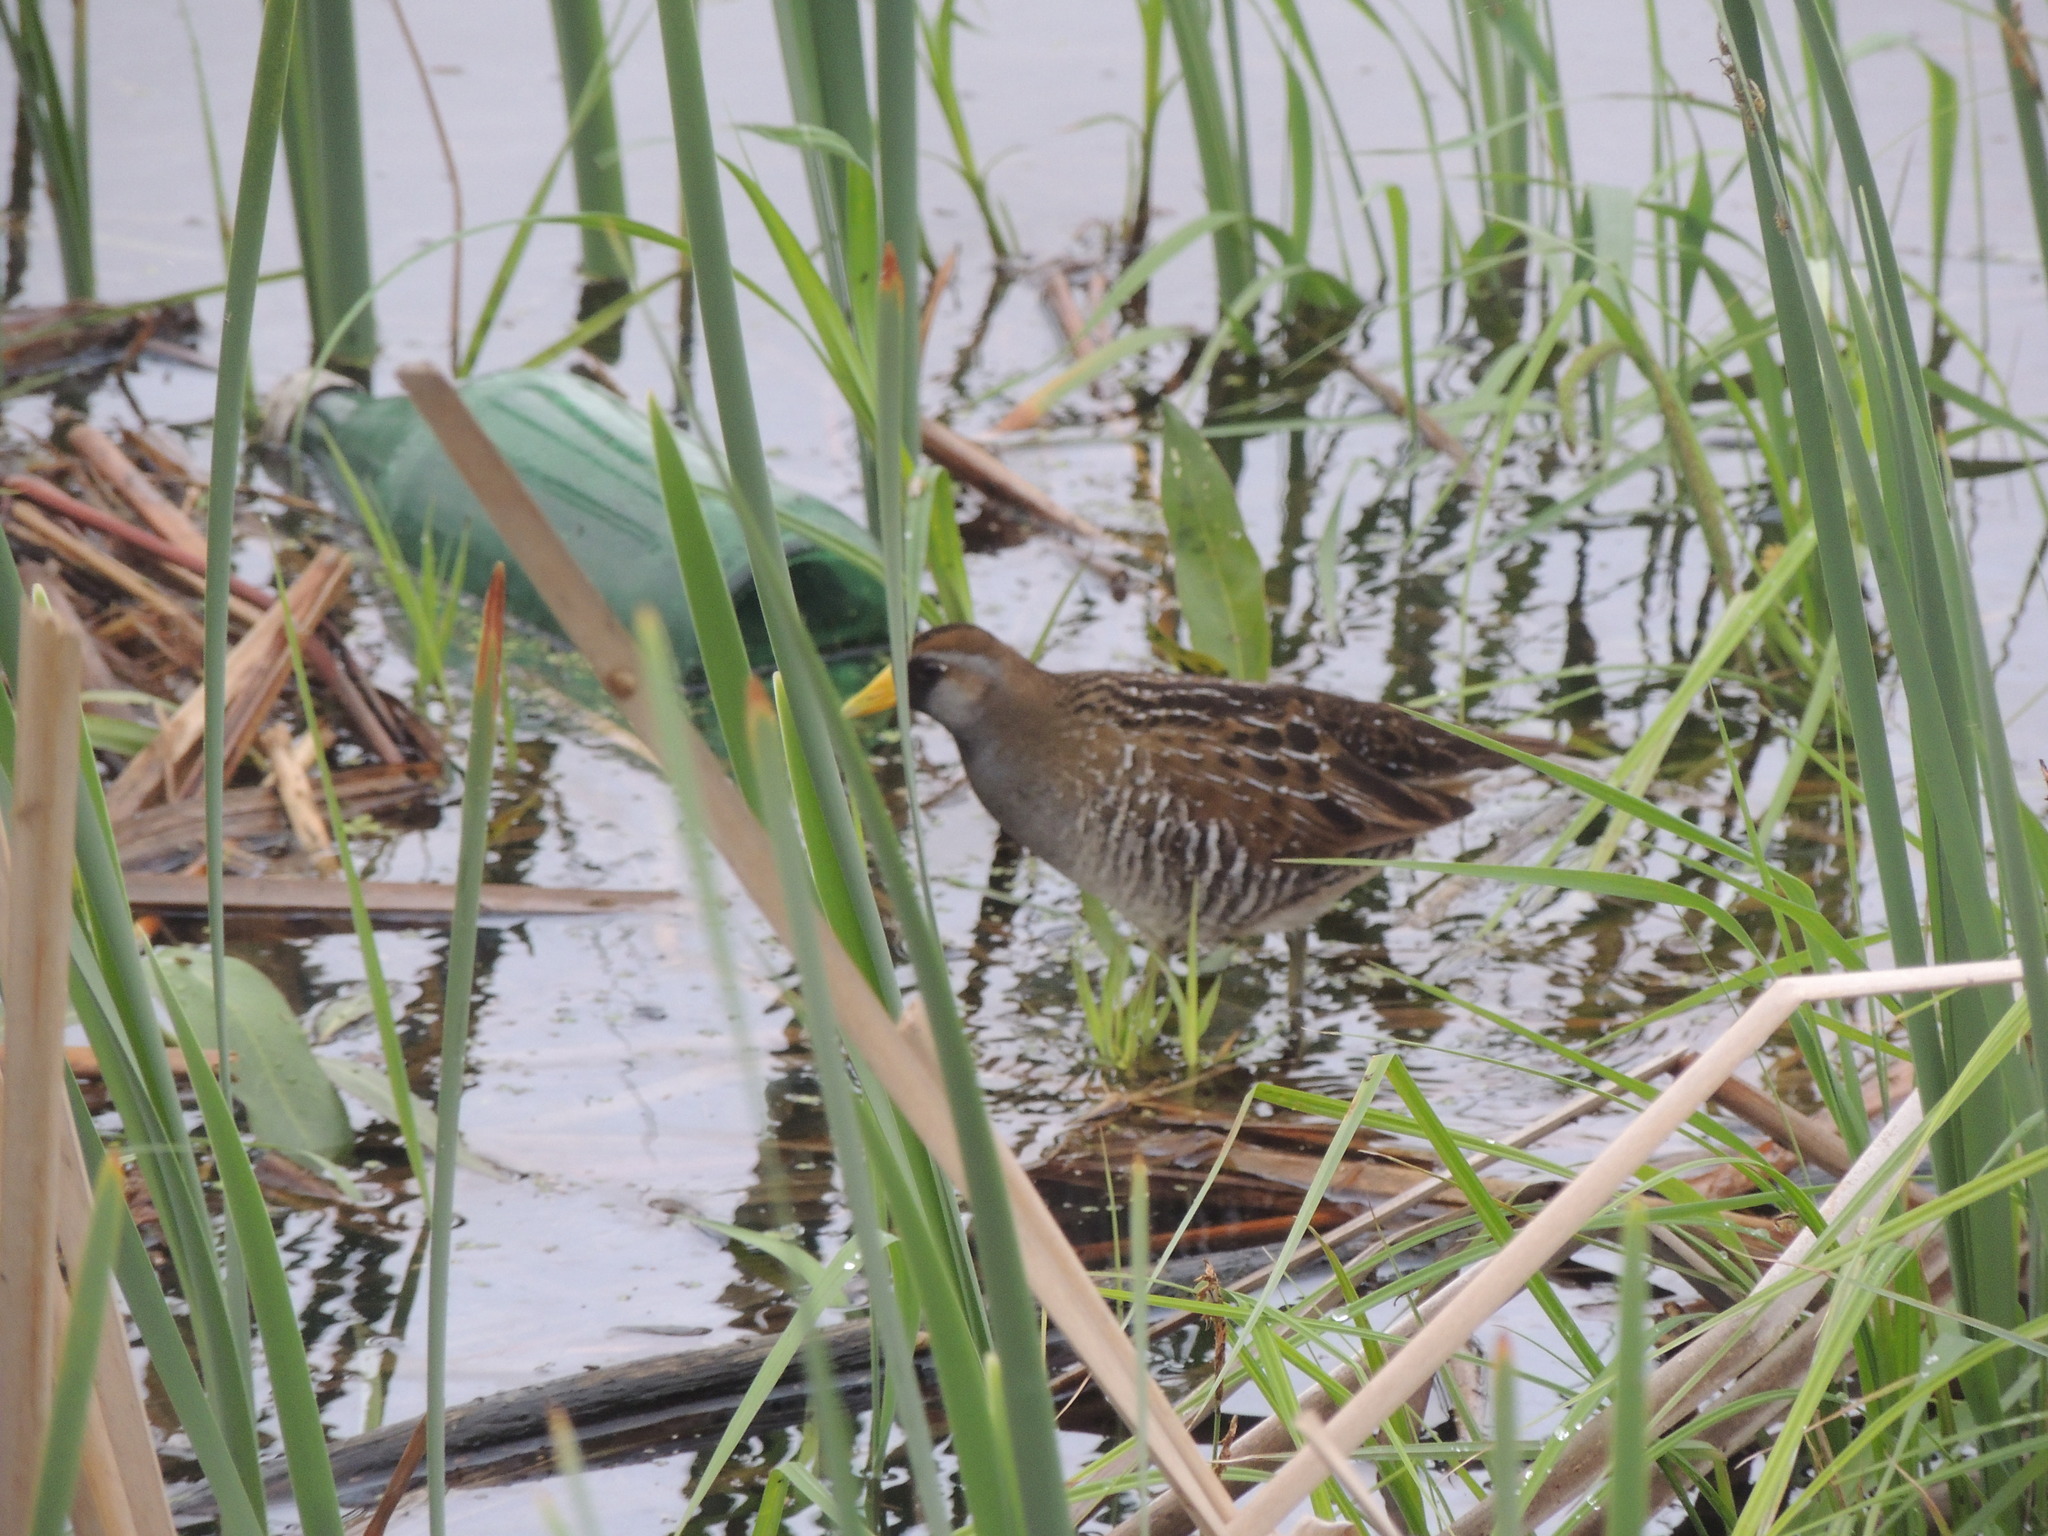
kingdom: Animalia
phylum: Chordata
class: Aves
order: Gruiformes
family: Rallidae
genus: Porzana
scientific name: Porzana carolina
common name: Sora
